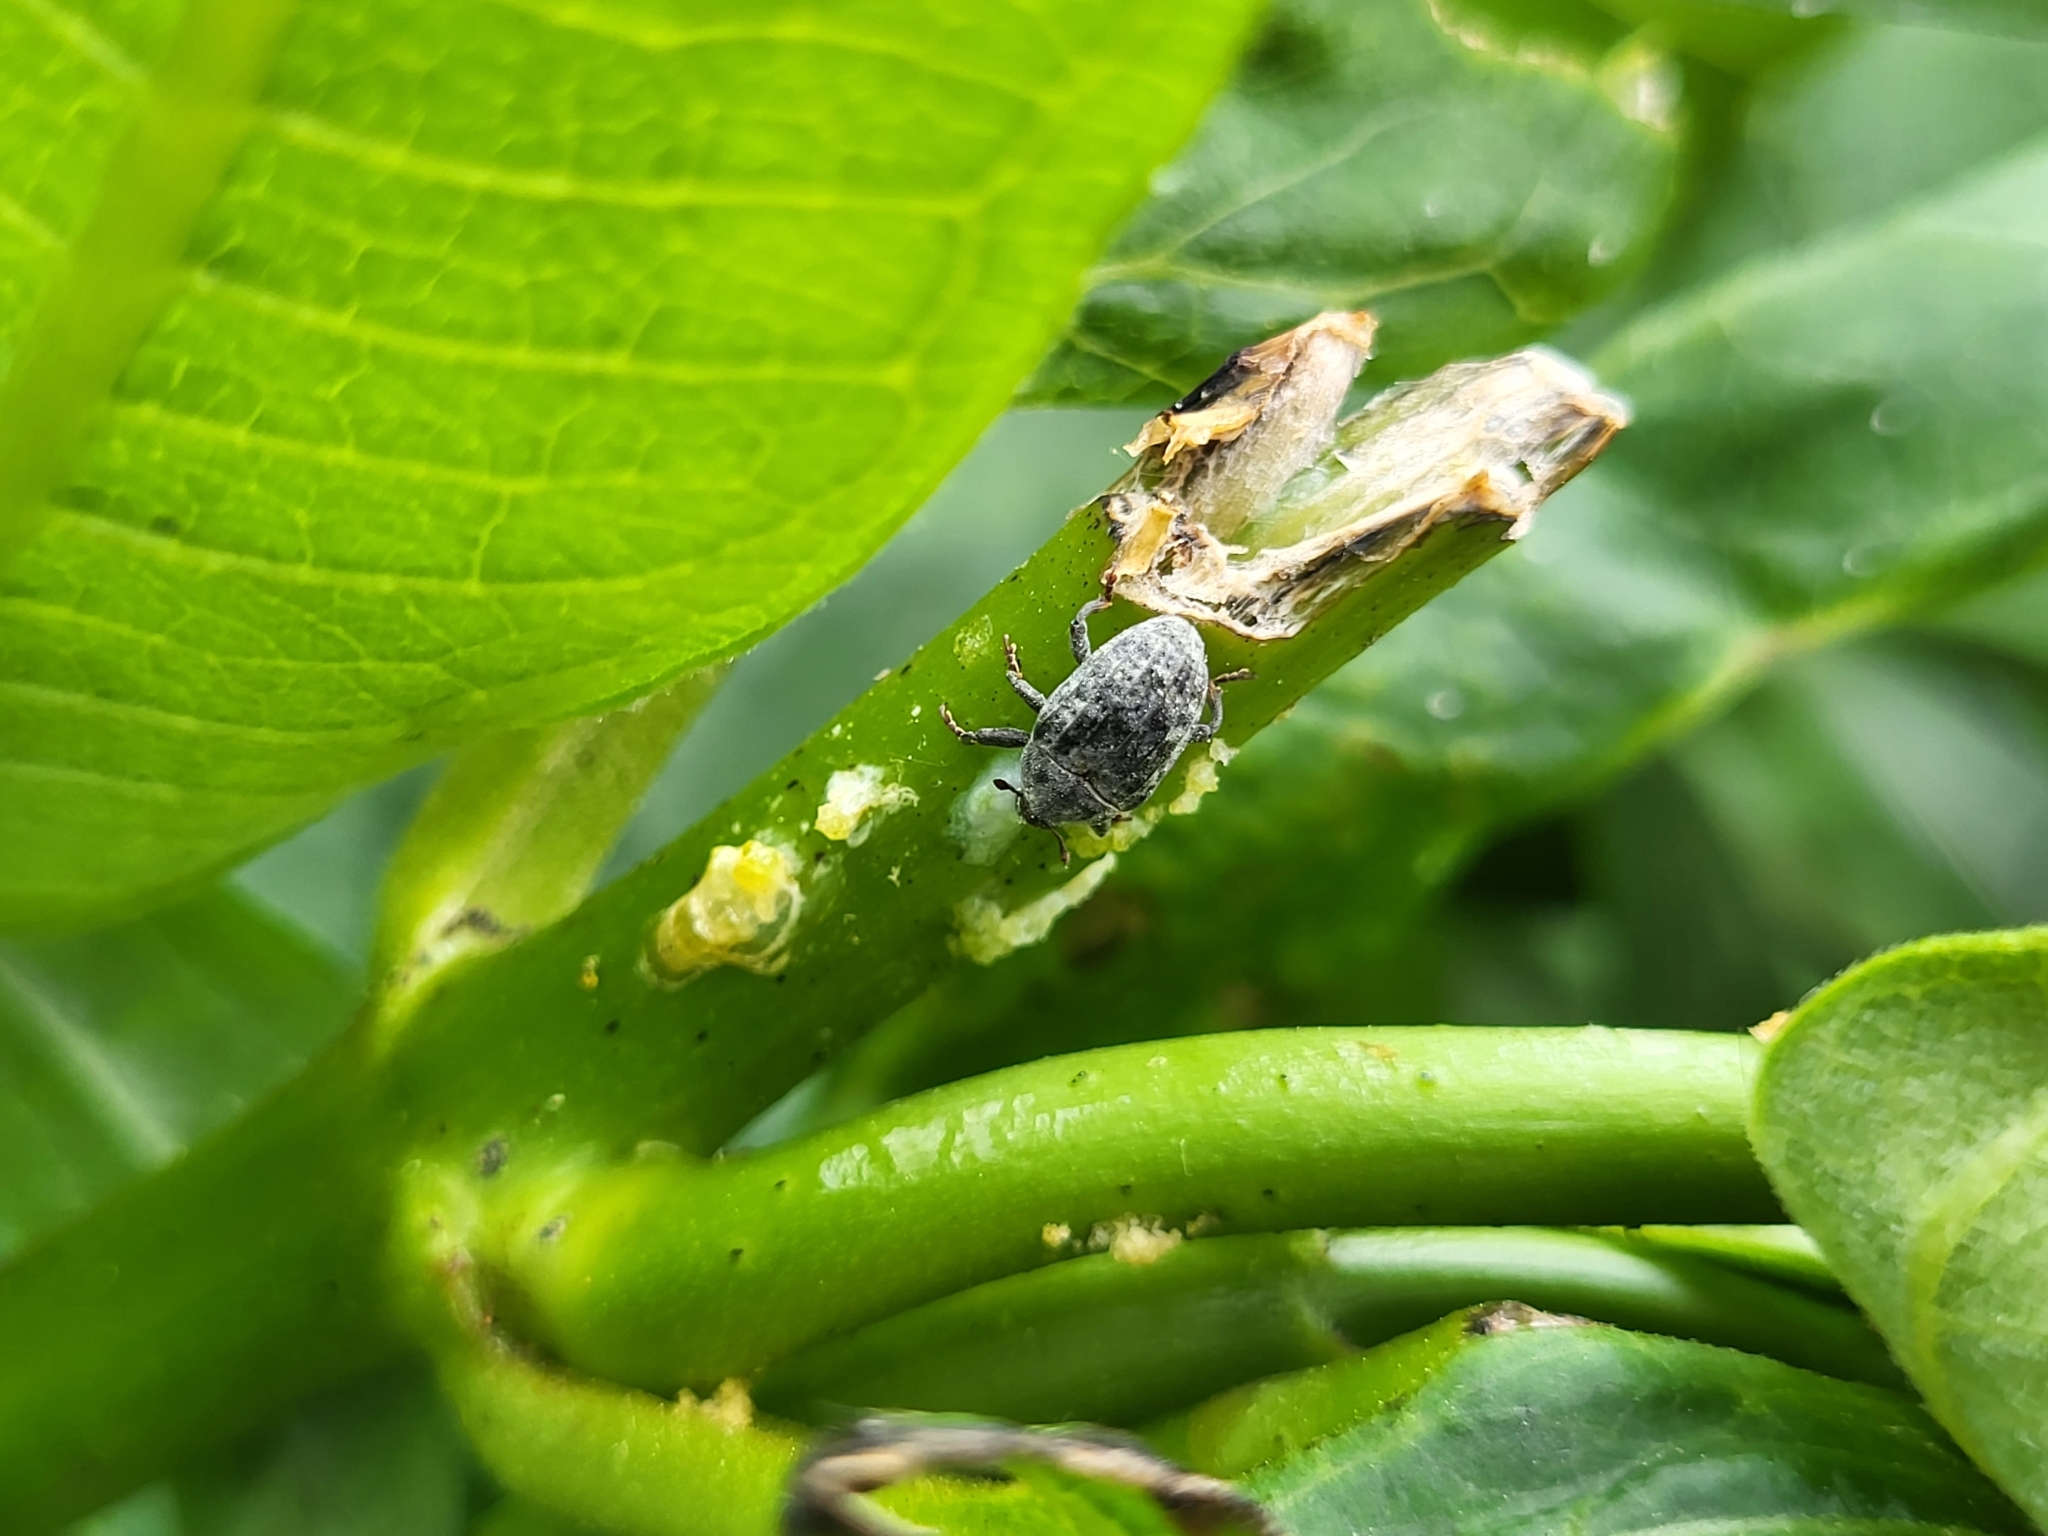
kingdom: Animalia
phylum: Arthropoda
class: Insecta
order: Coleoptera
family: Curculionidae
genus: Rhyssomatus
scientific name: Rhyssomatus lineaticollis
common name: Milkweed stem weevil
